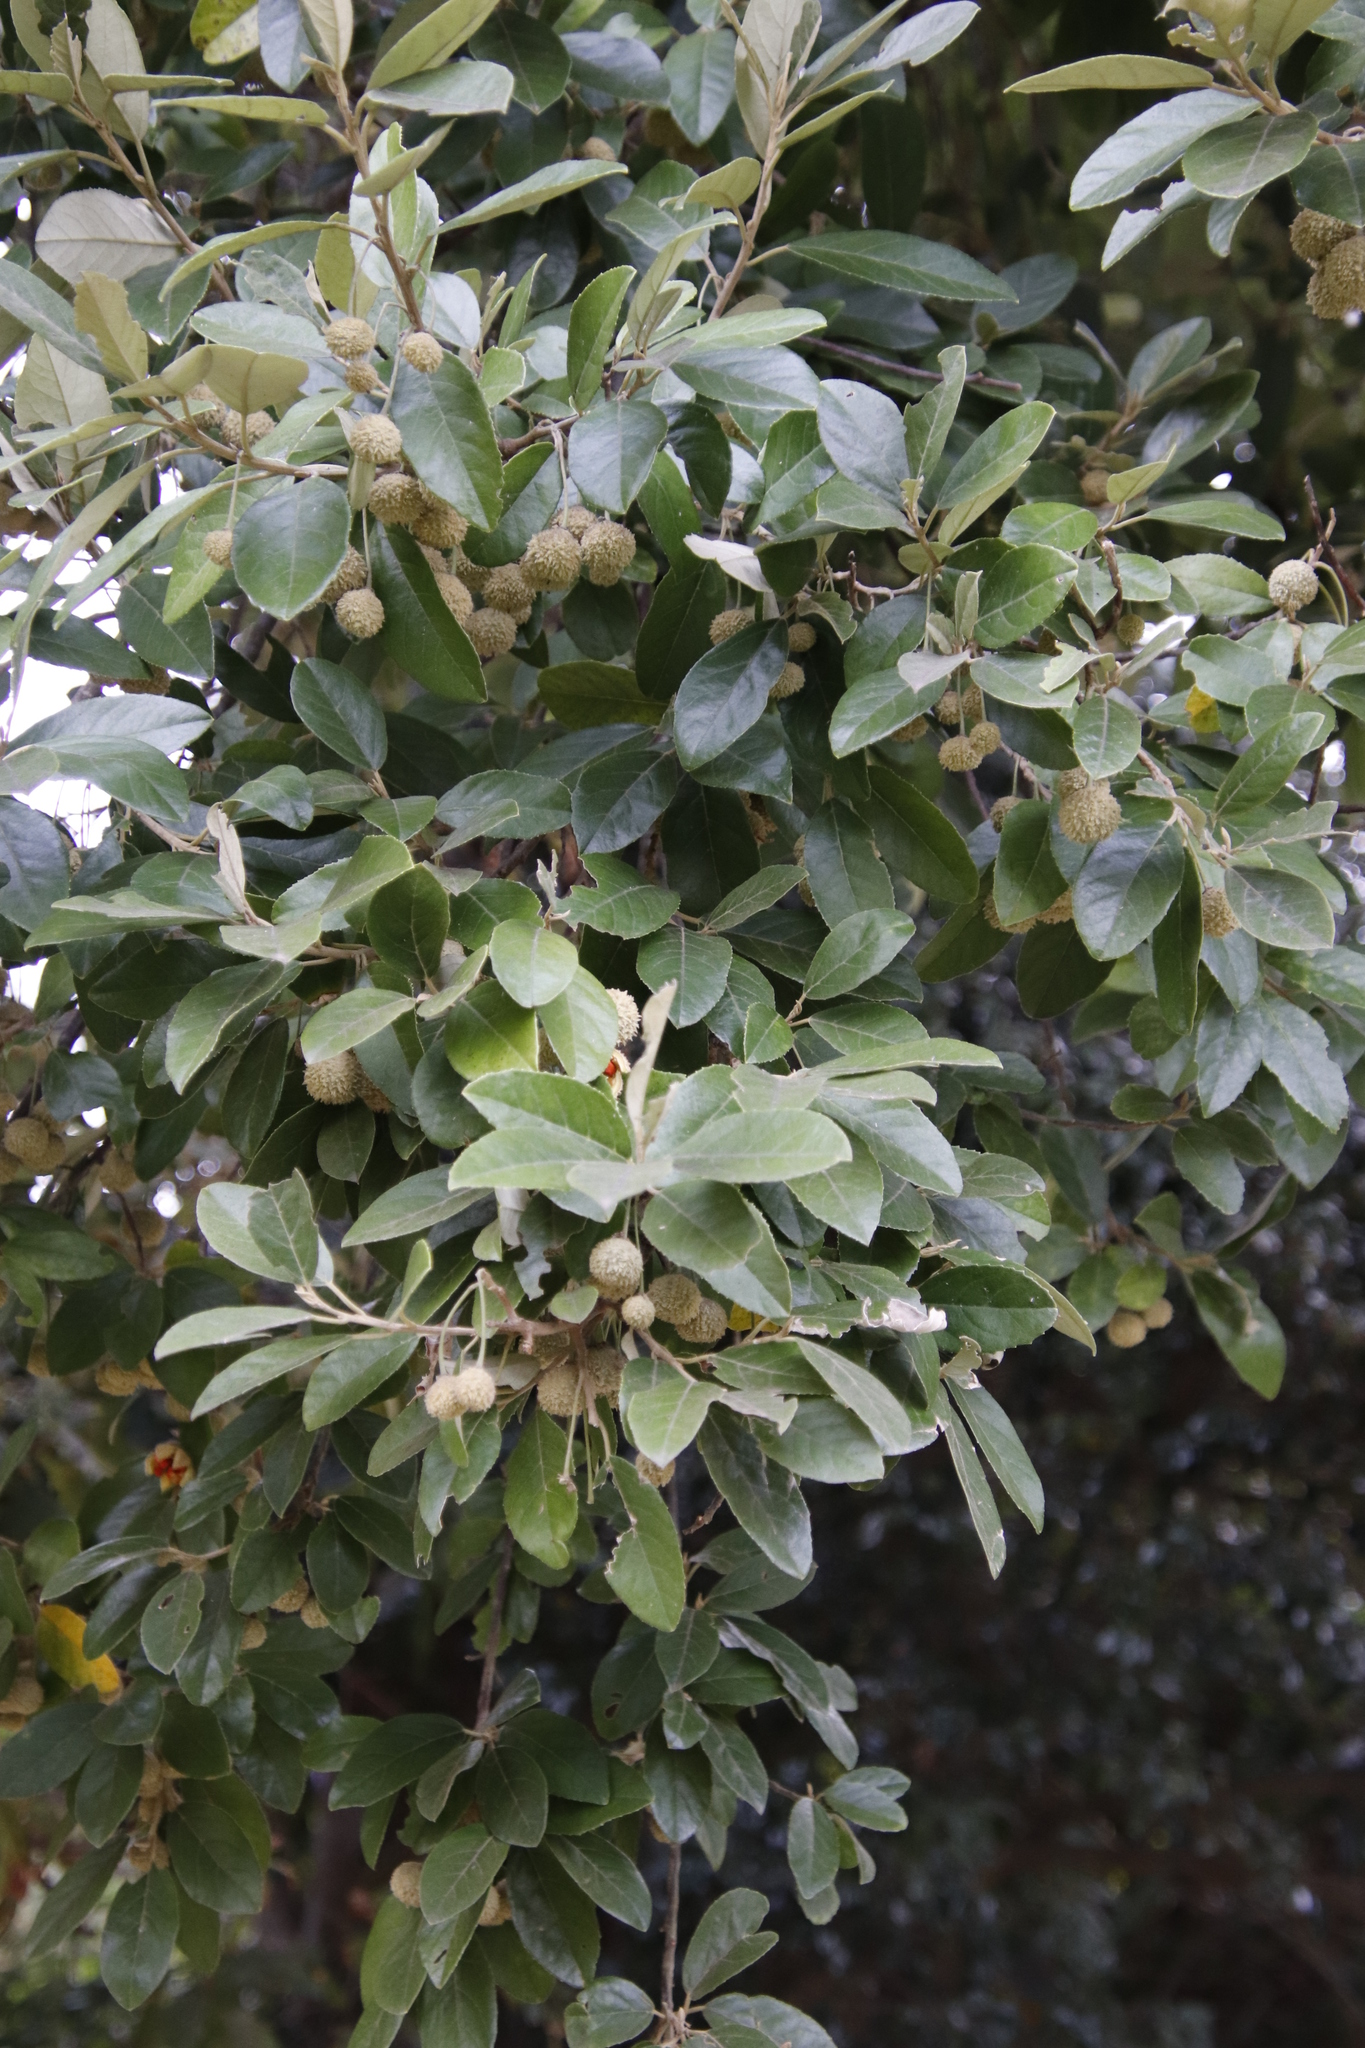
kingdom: Plantae
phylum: Tracheophyta
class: Magnoliopsida
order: Malpighiales
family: Achariaceae
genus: Kiggelaria
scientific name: Kiggelaria africana
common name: Wild peach
